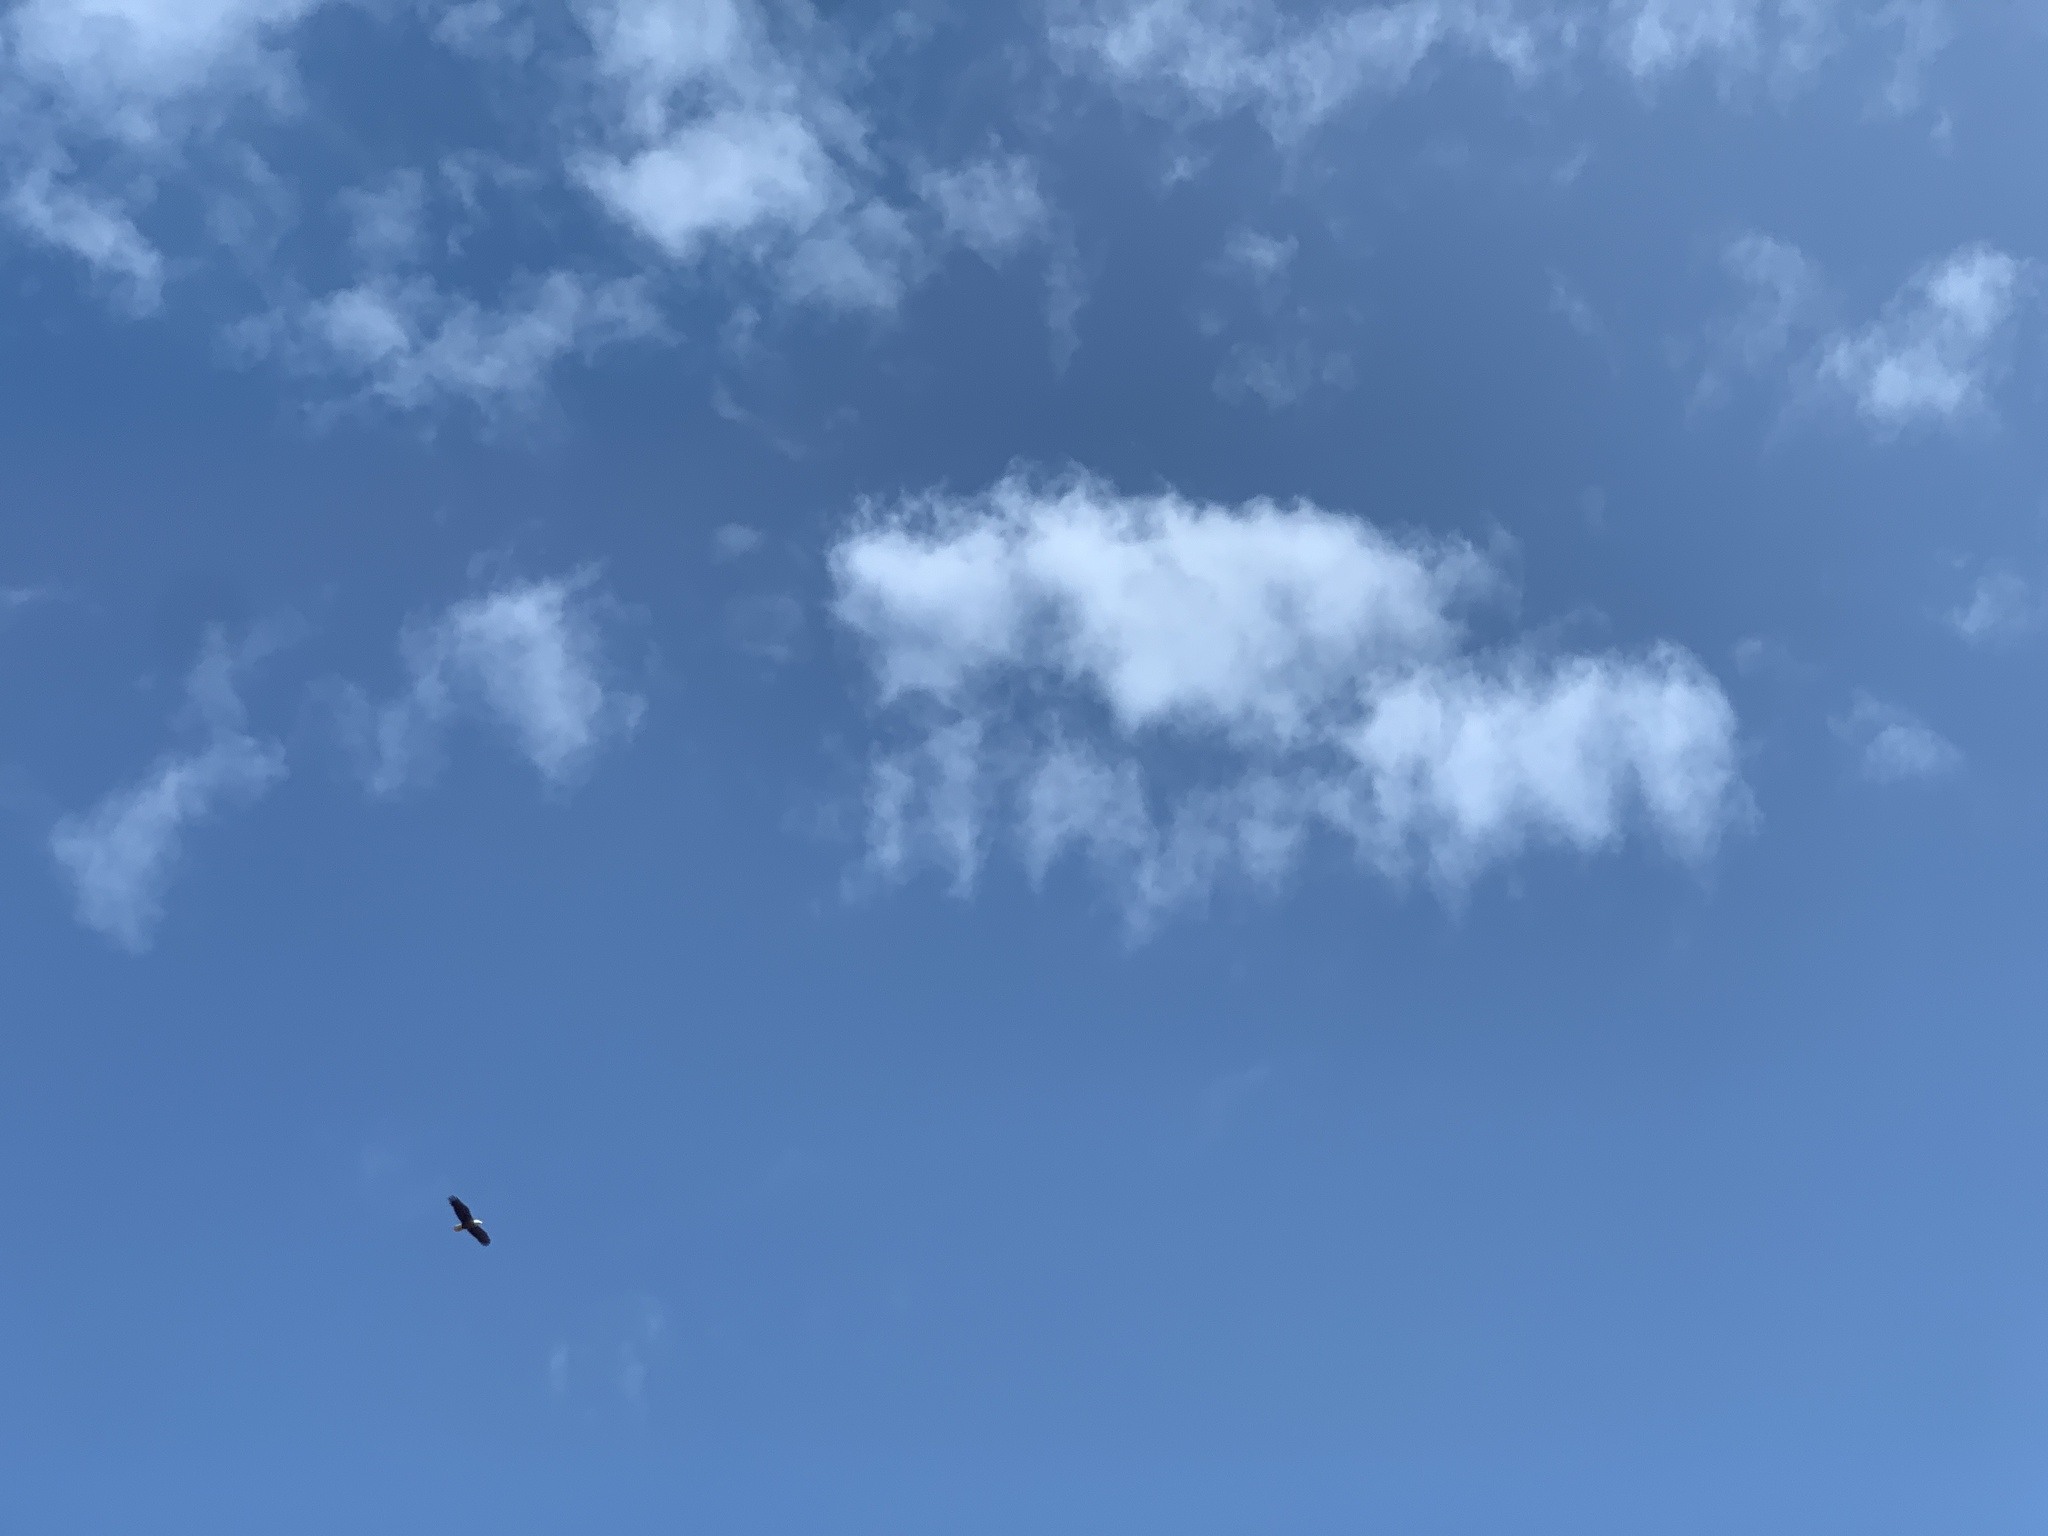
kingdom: Animalia
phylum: Chordata
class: Aves
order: Accipitriformes
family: Accipitridae
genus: Haliaeetus
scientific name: Haliaeetus leucocephalus
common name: Bald eagle
